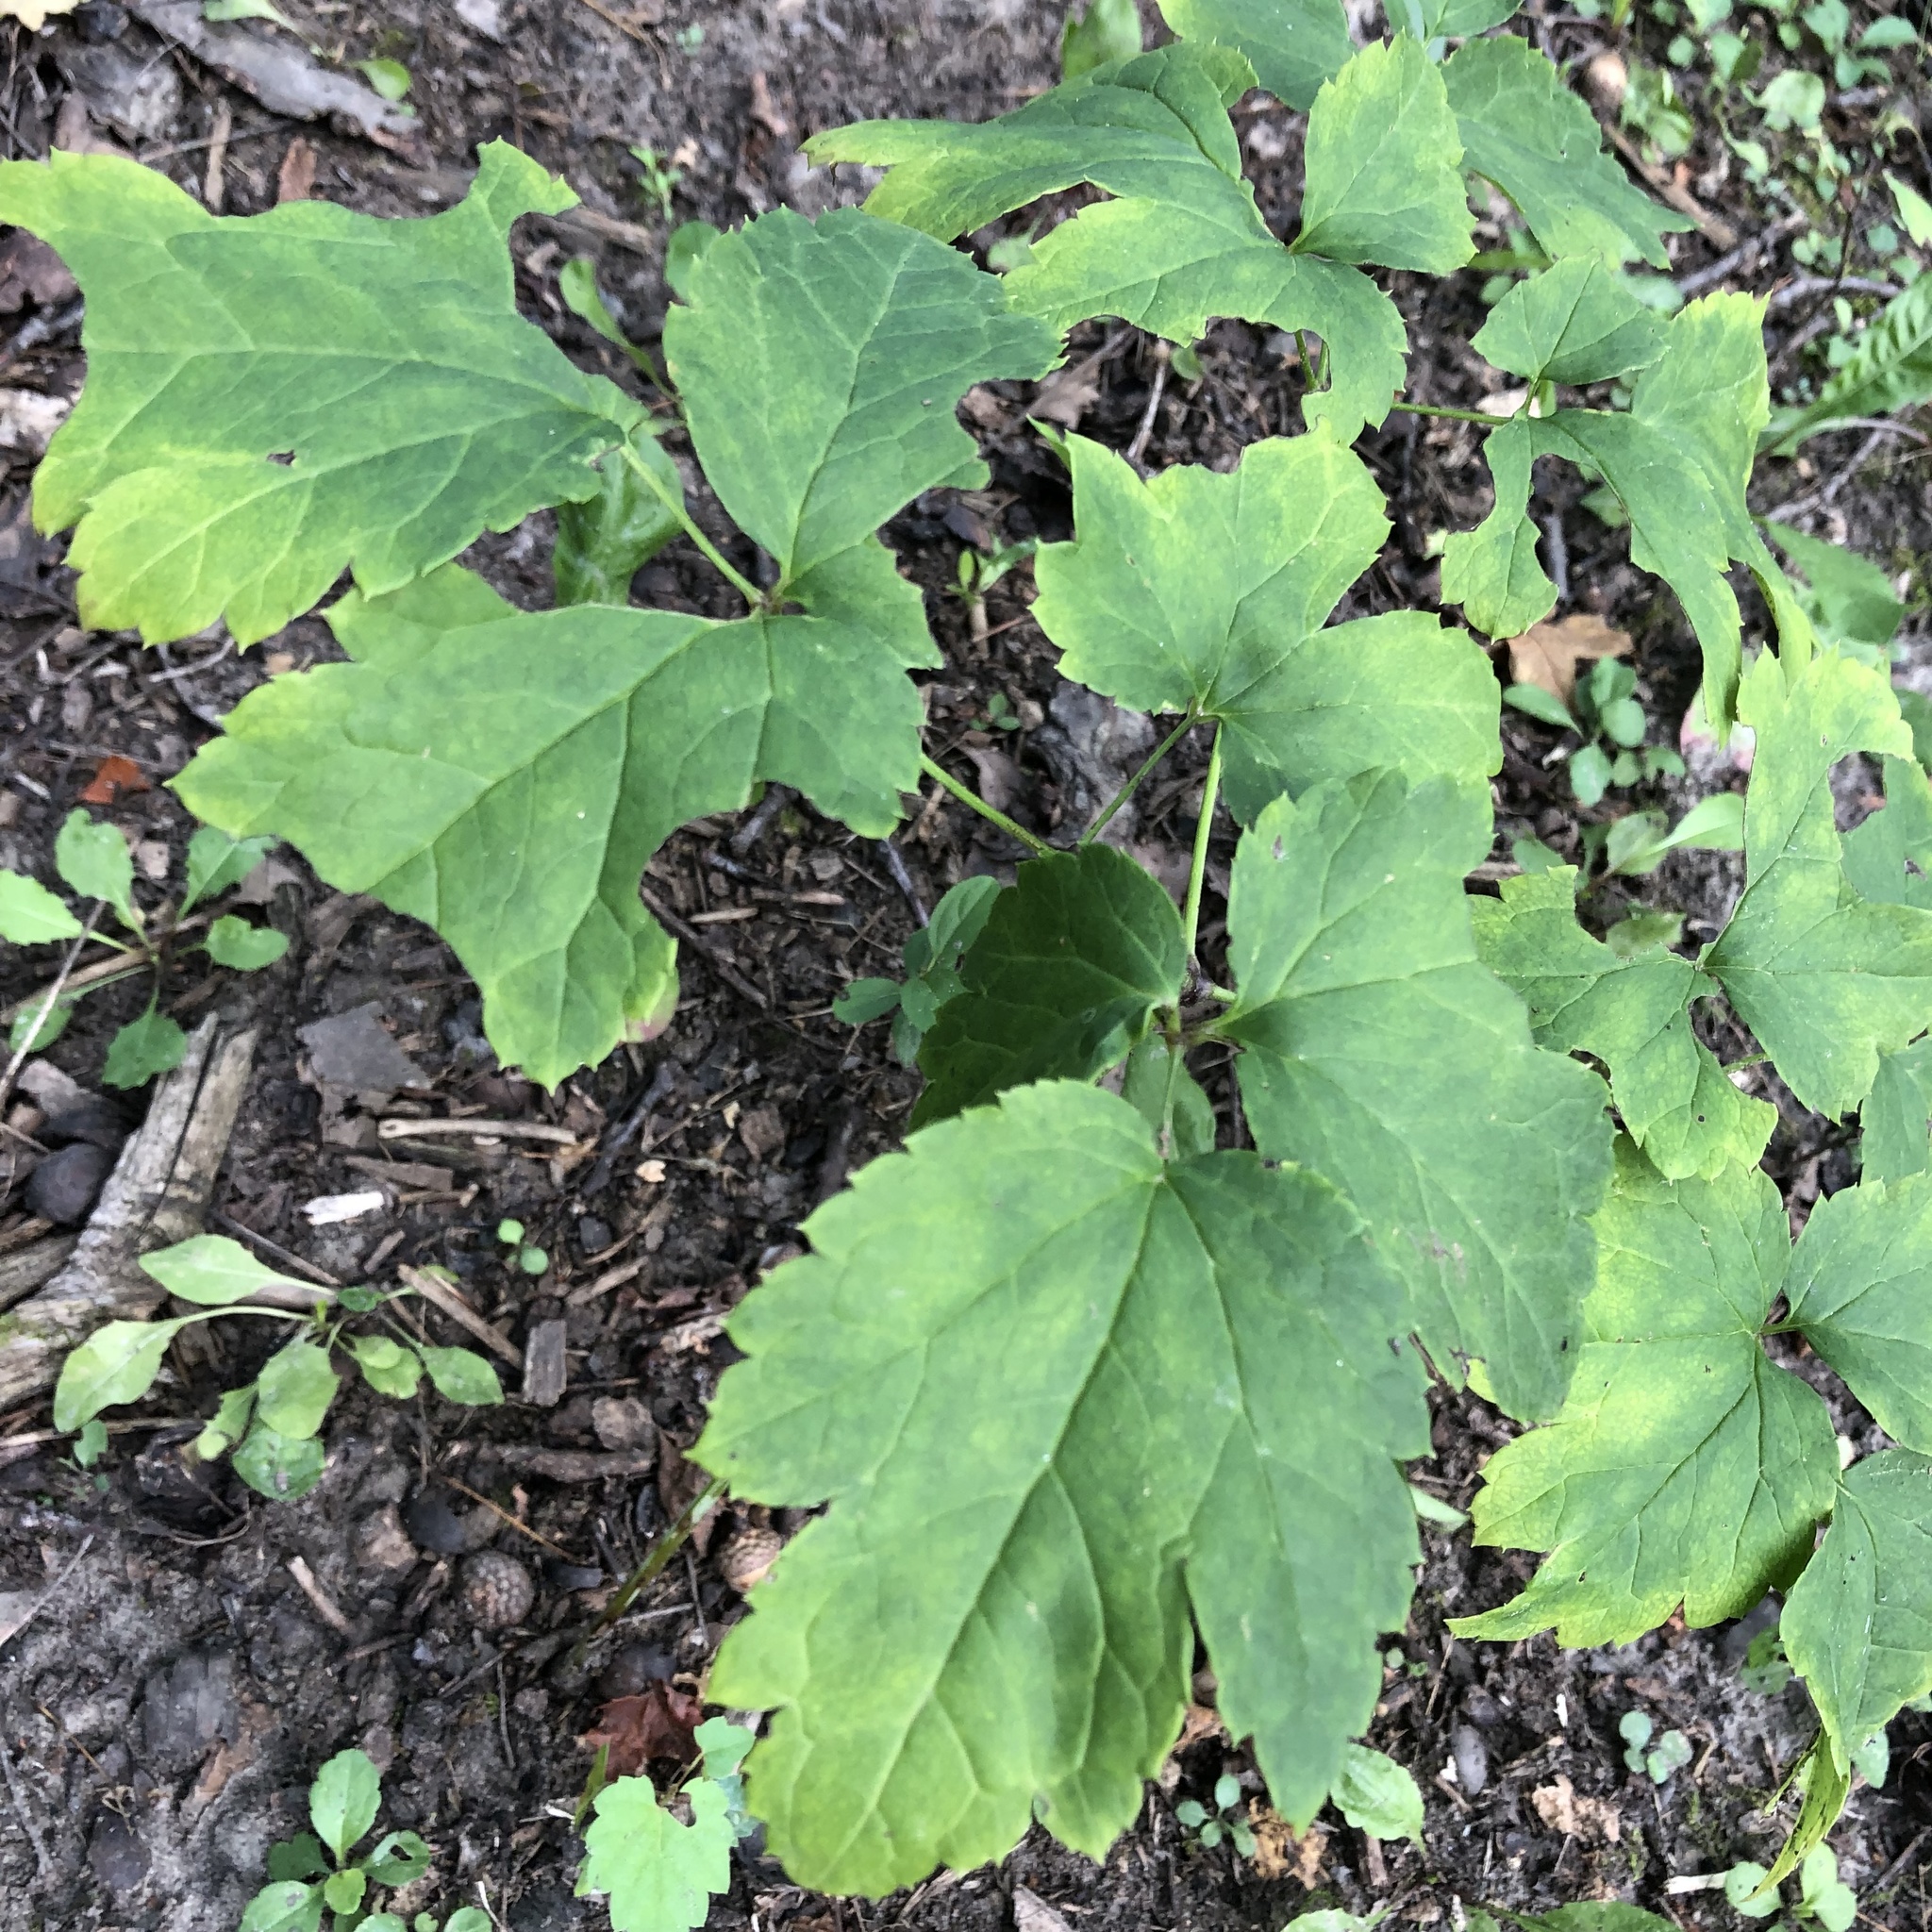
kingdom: Plantae
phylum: Tracheophyta
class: Magnoliopsida
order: Apiales
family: Araliaceae
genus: Aralia
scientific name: Aralia nudicaulis
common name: Wild sarsaparilla
